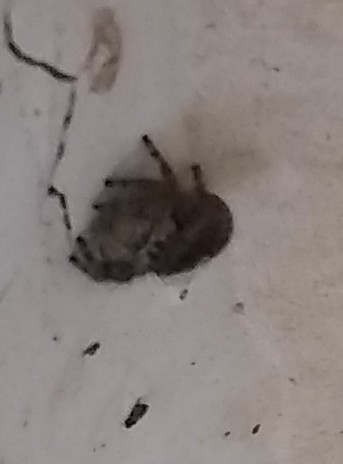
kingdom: Animalia
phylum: Arthropoda
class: Arachnida
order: Araneae
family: Salticidae
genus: Phidippus
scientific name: Phidippus audax
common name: Bold jumper
